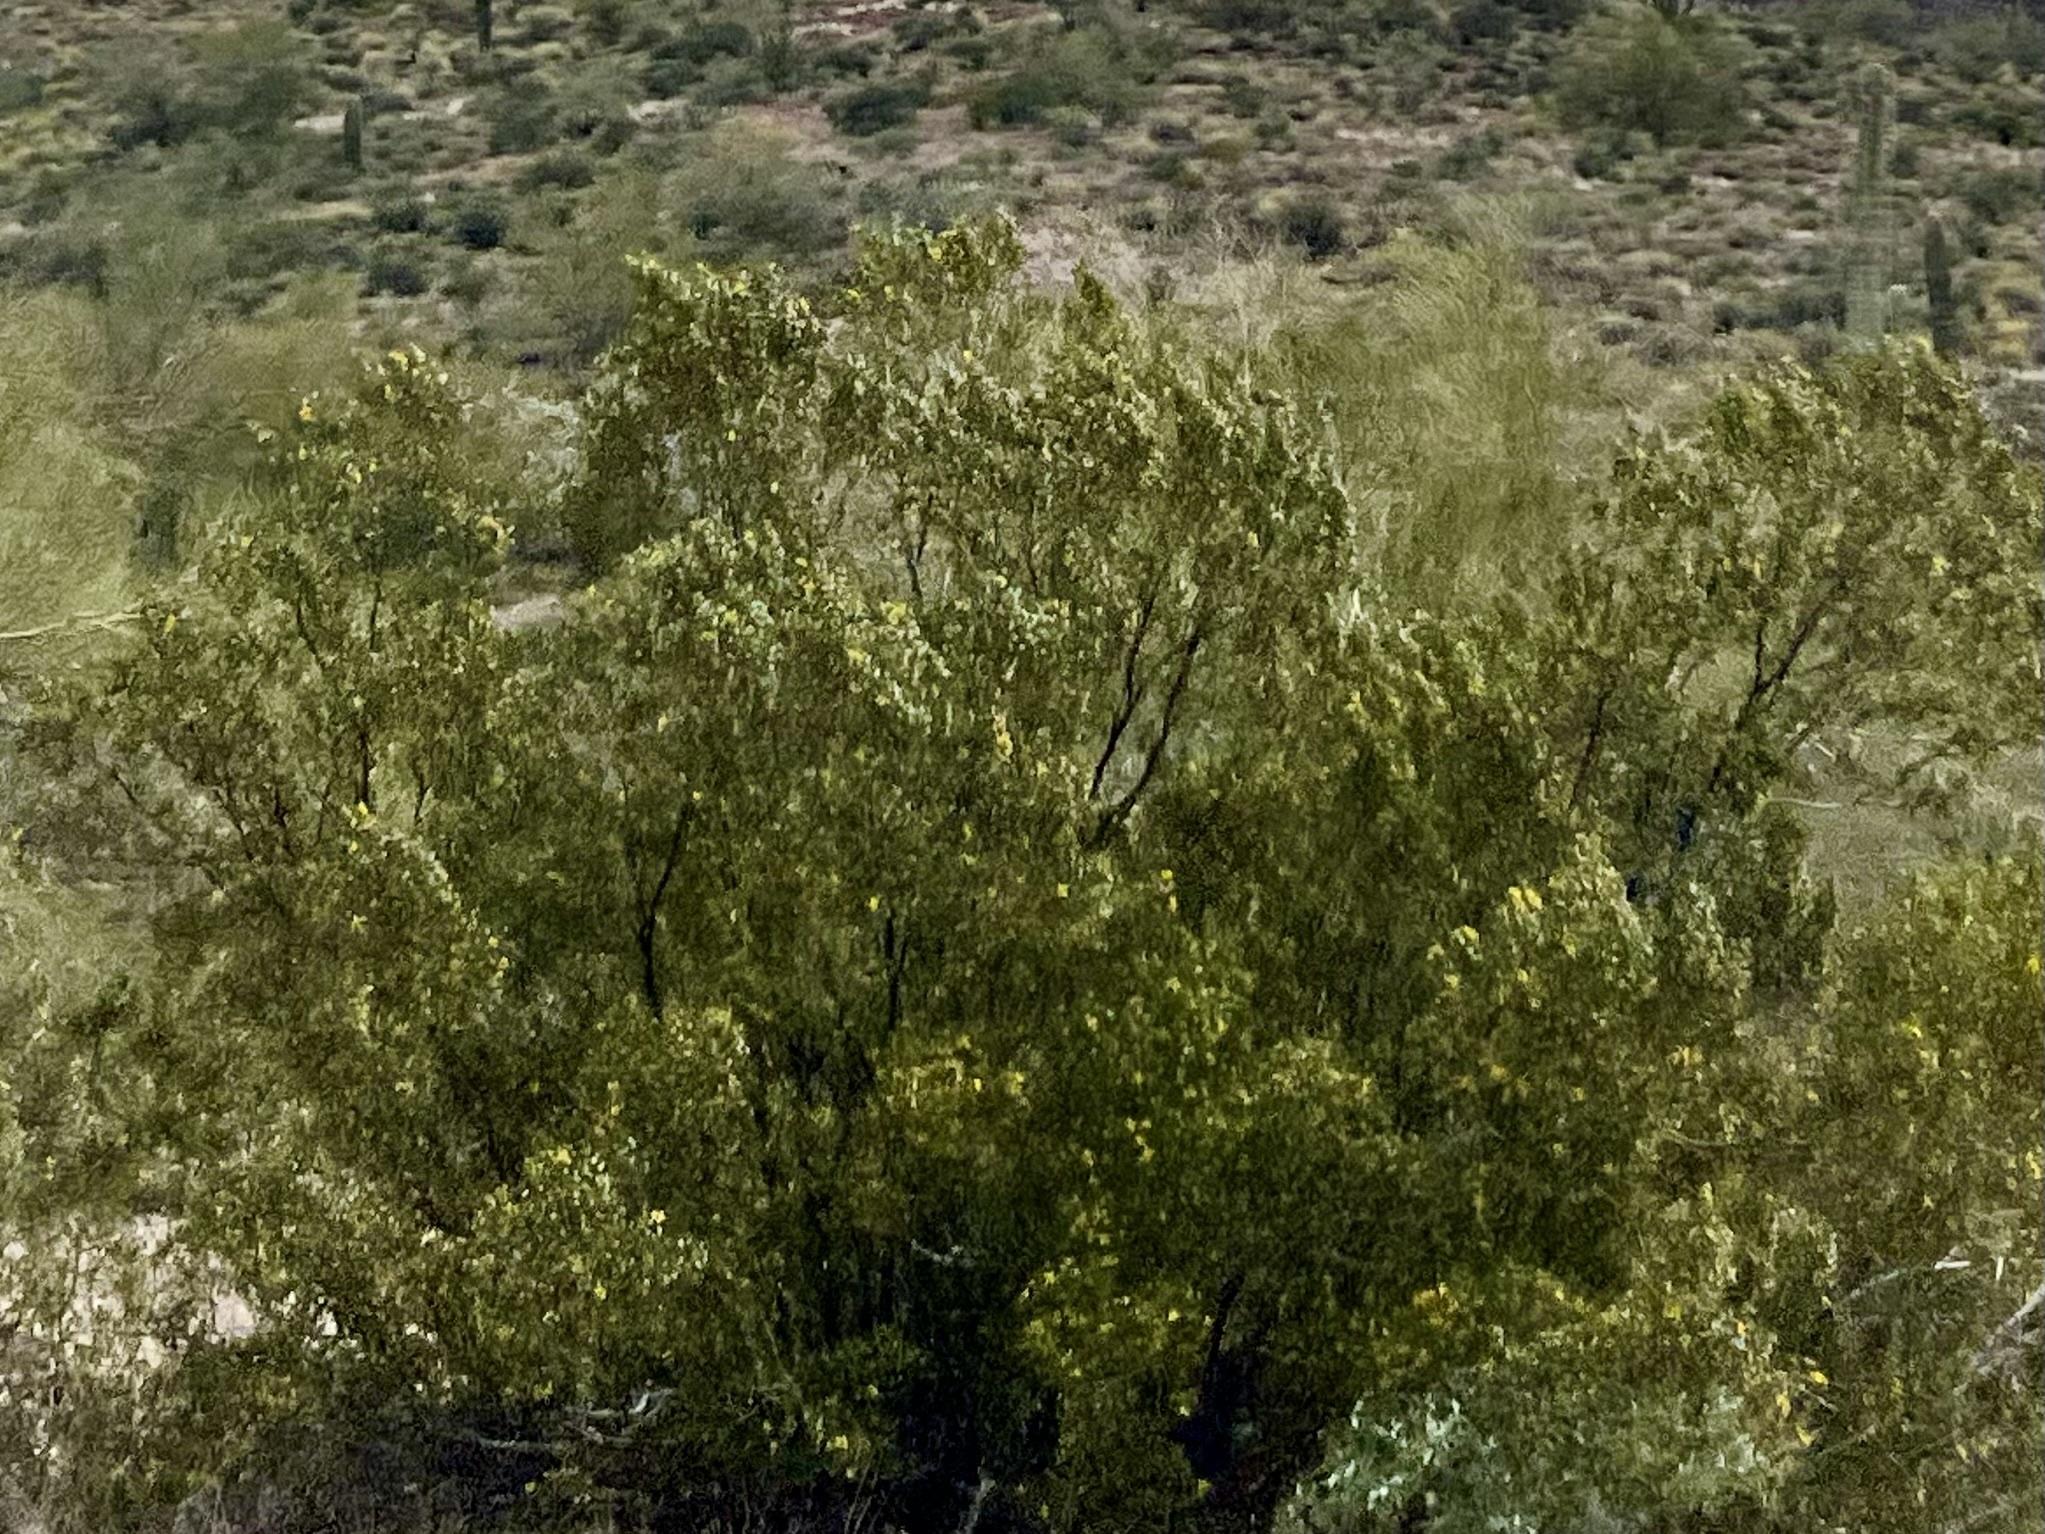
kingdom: Plantae
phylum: Tracheophyta
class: Magnoliopsida
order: Zygophyllales
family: Zygophyllaceae
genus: Larrea
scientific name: Larrea tridentata
